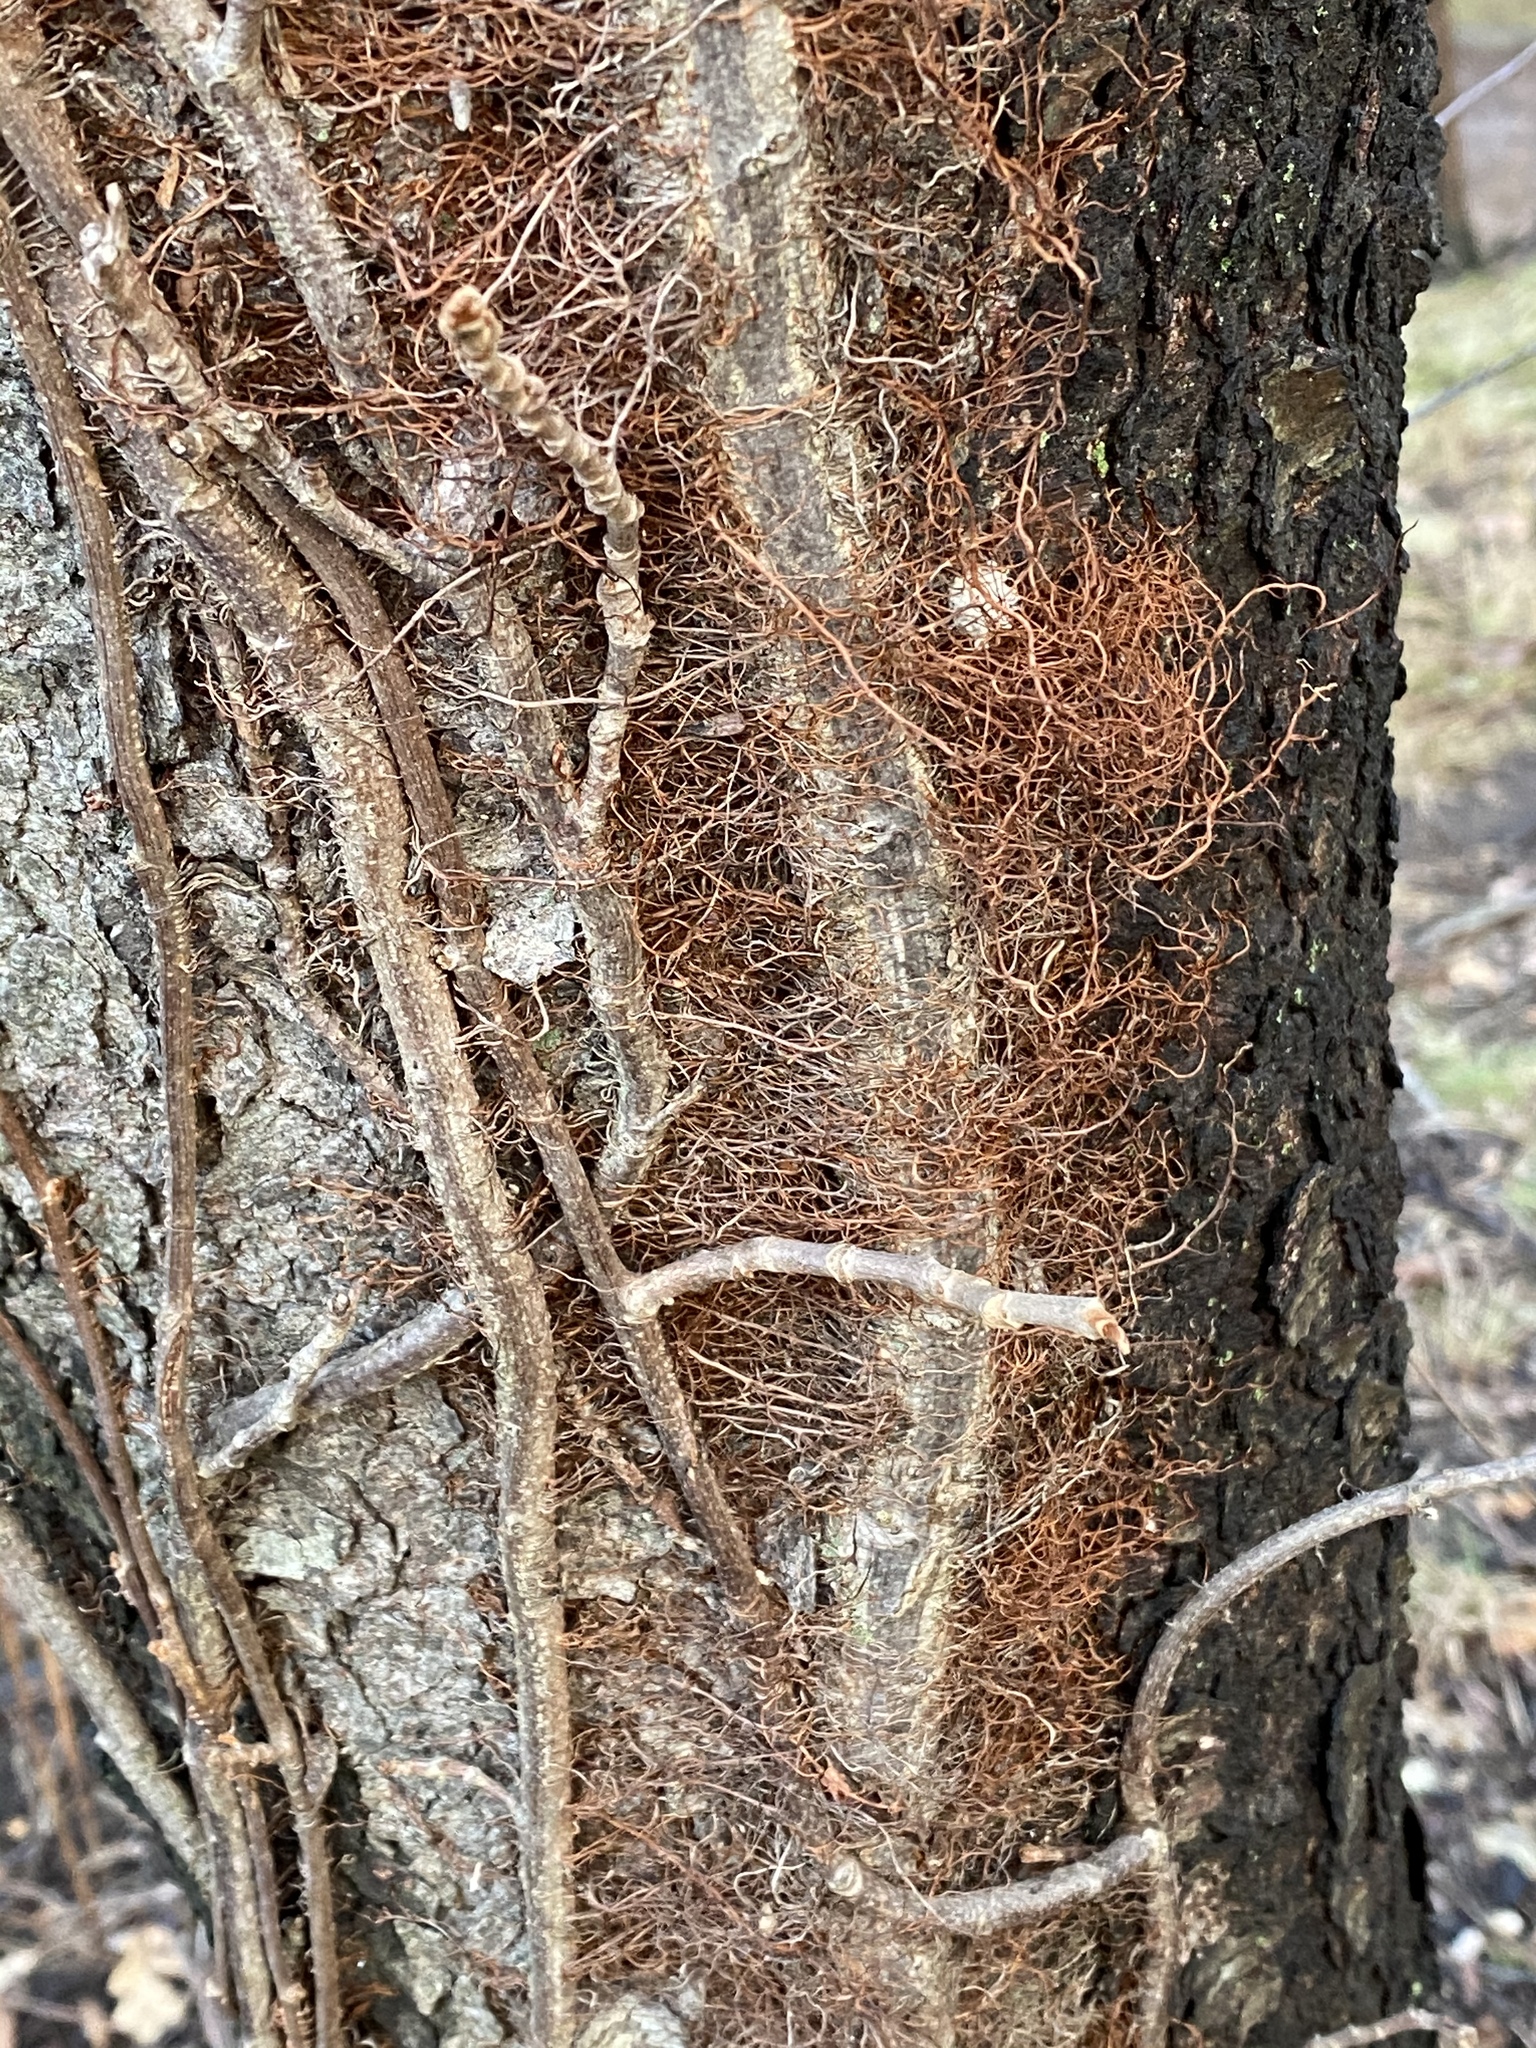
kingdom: Plantae
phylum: Tracheophyta
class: Magnoliopsida
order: Sapindales
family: Anacardiaceae
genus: Toxicodendron
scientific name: Toxicodendron radicans
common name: Poison ivy
